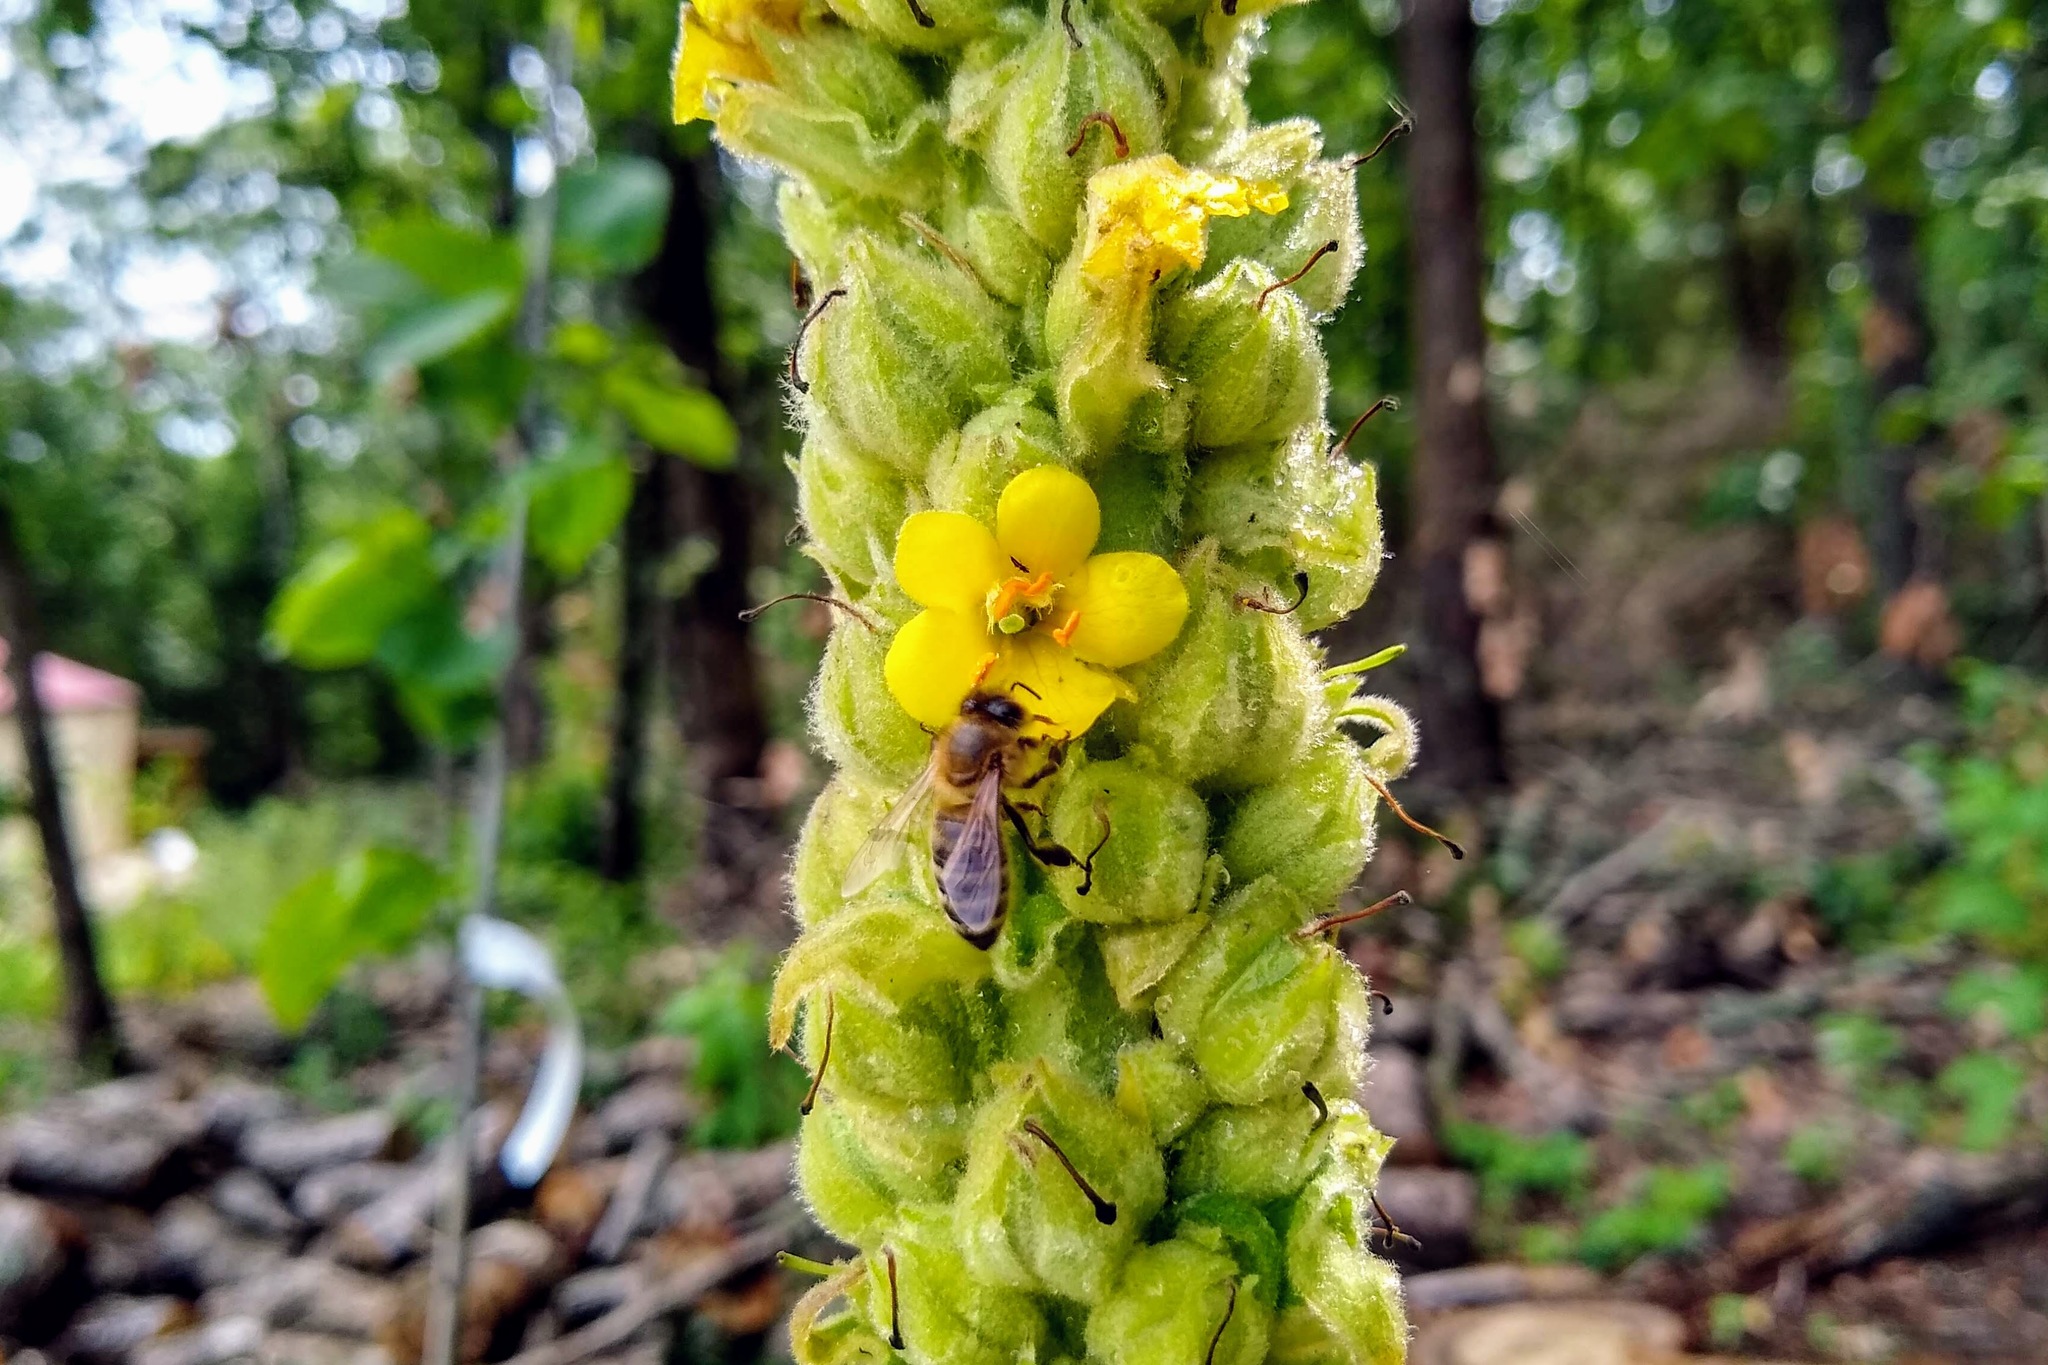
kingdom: Plantae
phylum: Tracheophyta
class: Magnoliopsida
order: Lamiales
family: Scrophulariaceae
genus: Verbascum
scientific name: Verbascum thapsus
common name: Common mullein
